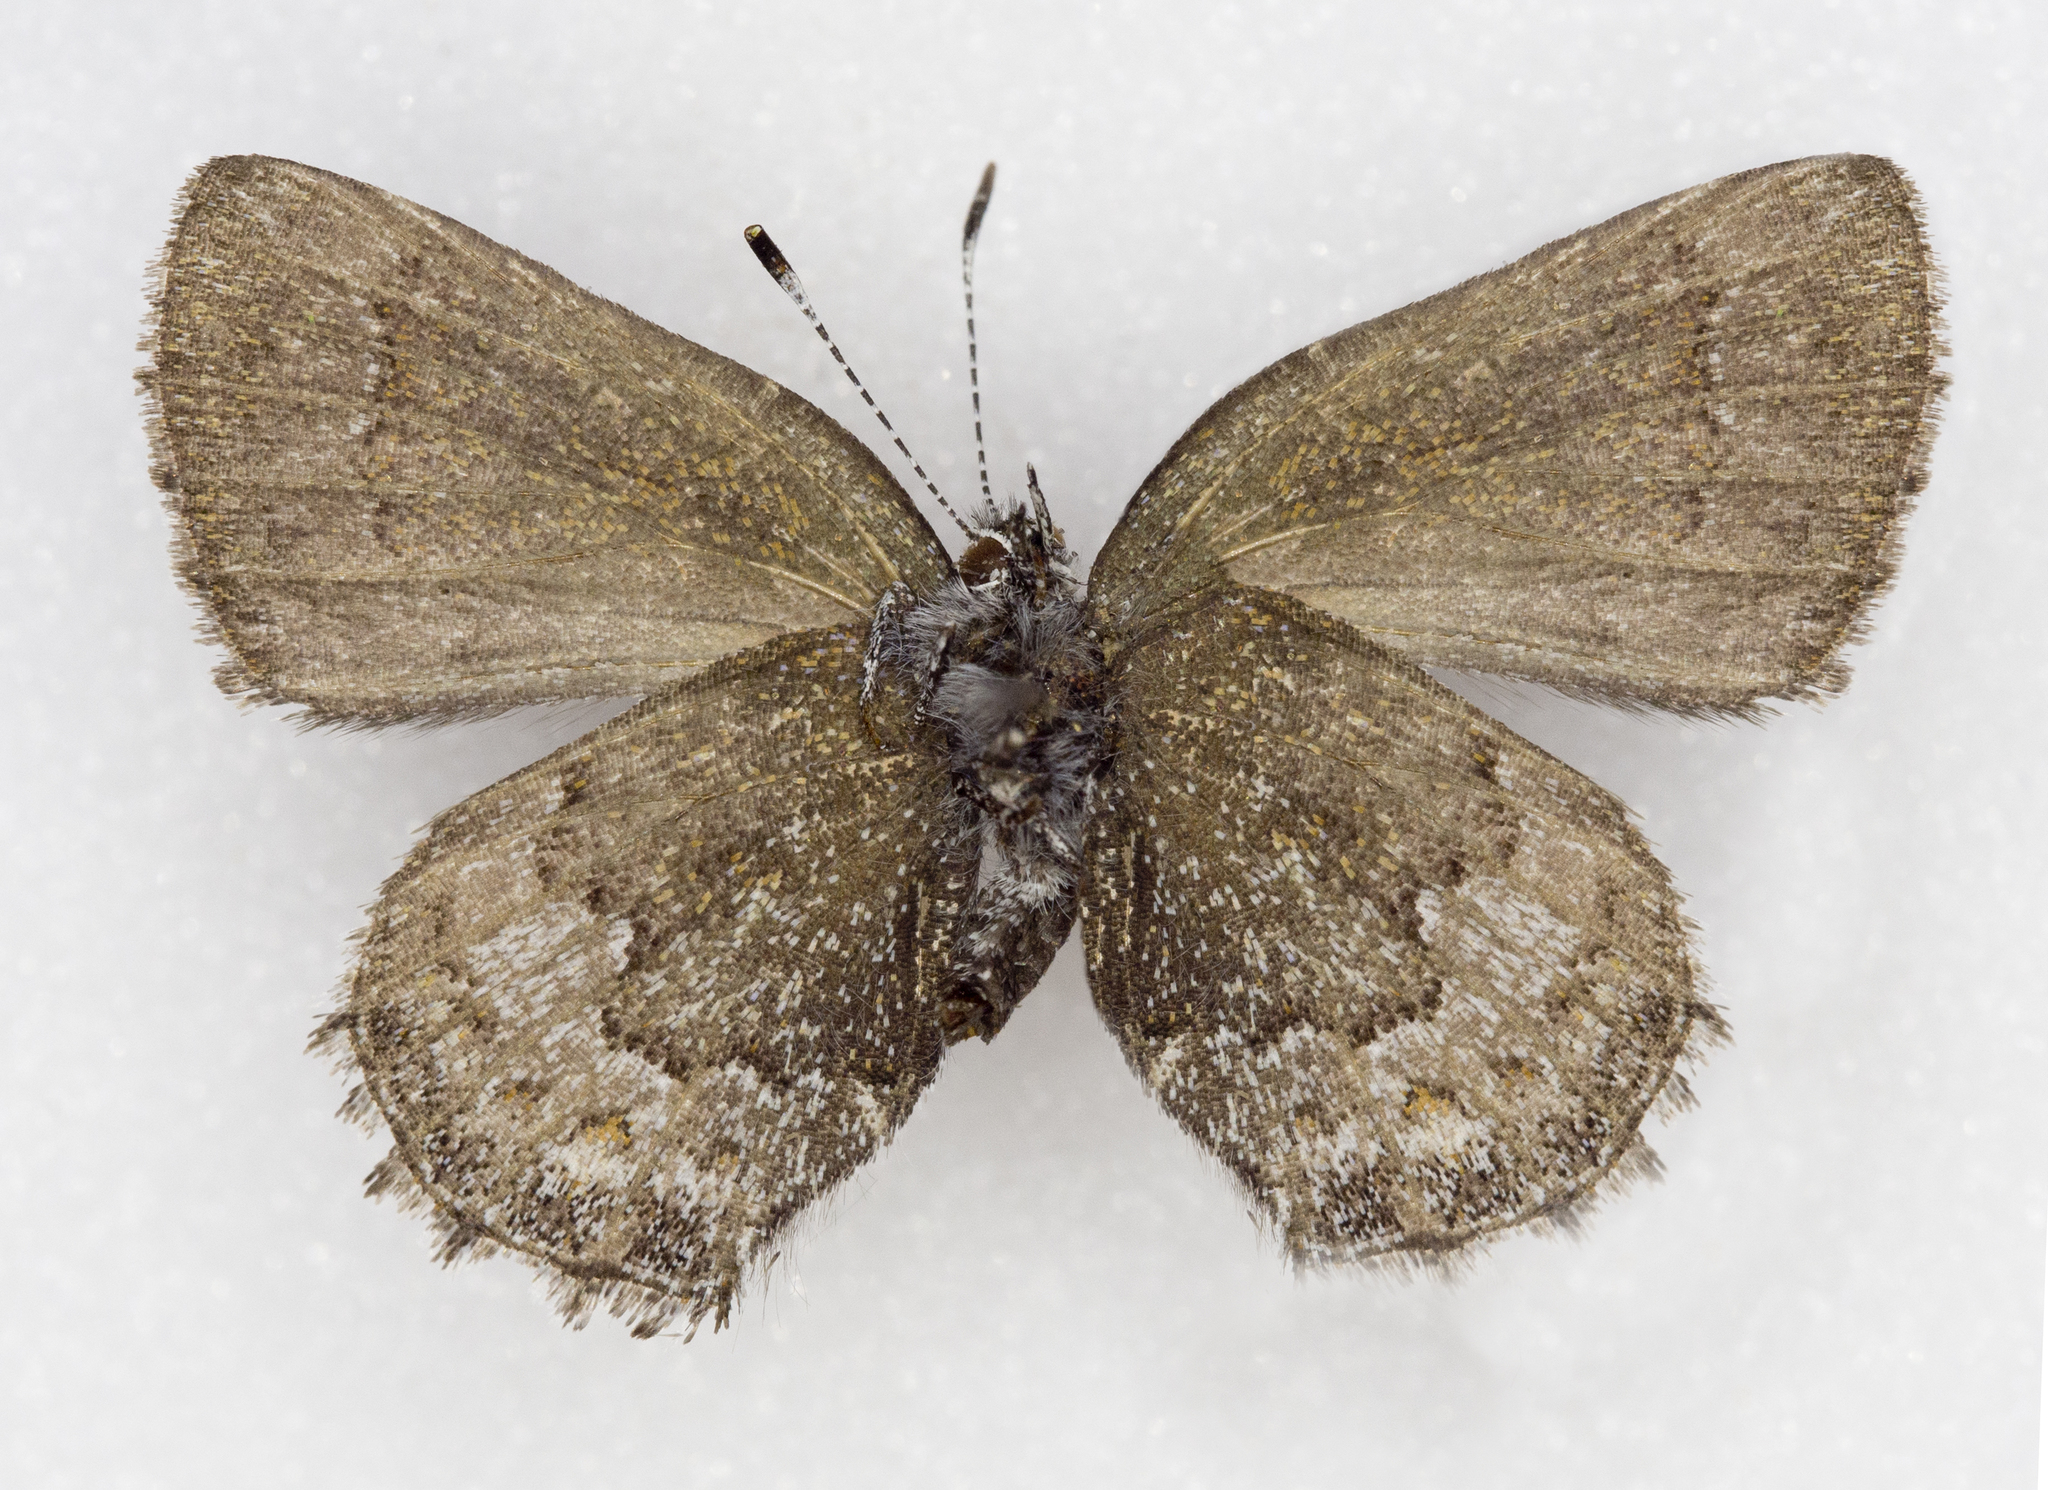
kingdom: Animalia
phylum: Arthropoda
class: Insecta
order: Lepidoptera
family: Lycaenidae
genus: Callophrys
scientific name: Callophrys fotis
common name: Desert elfin
